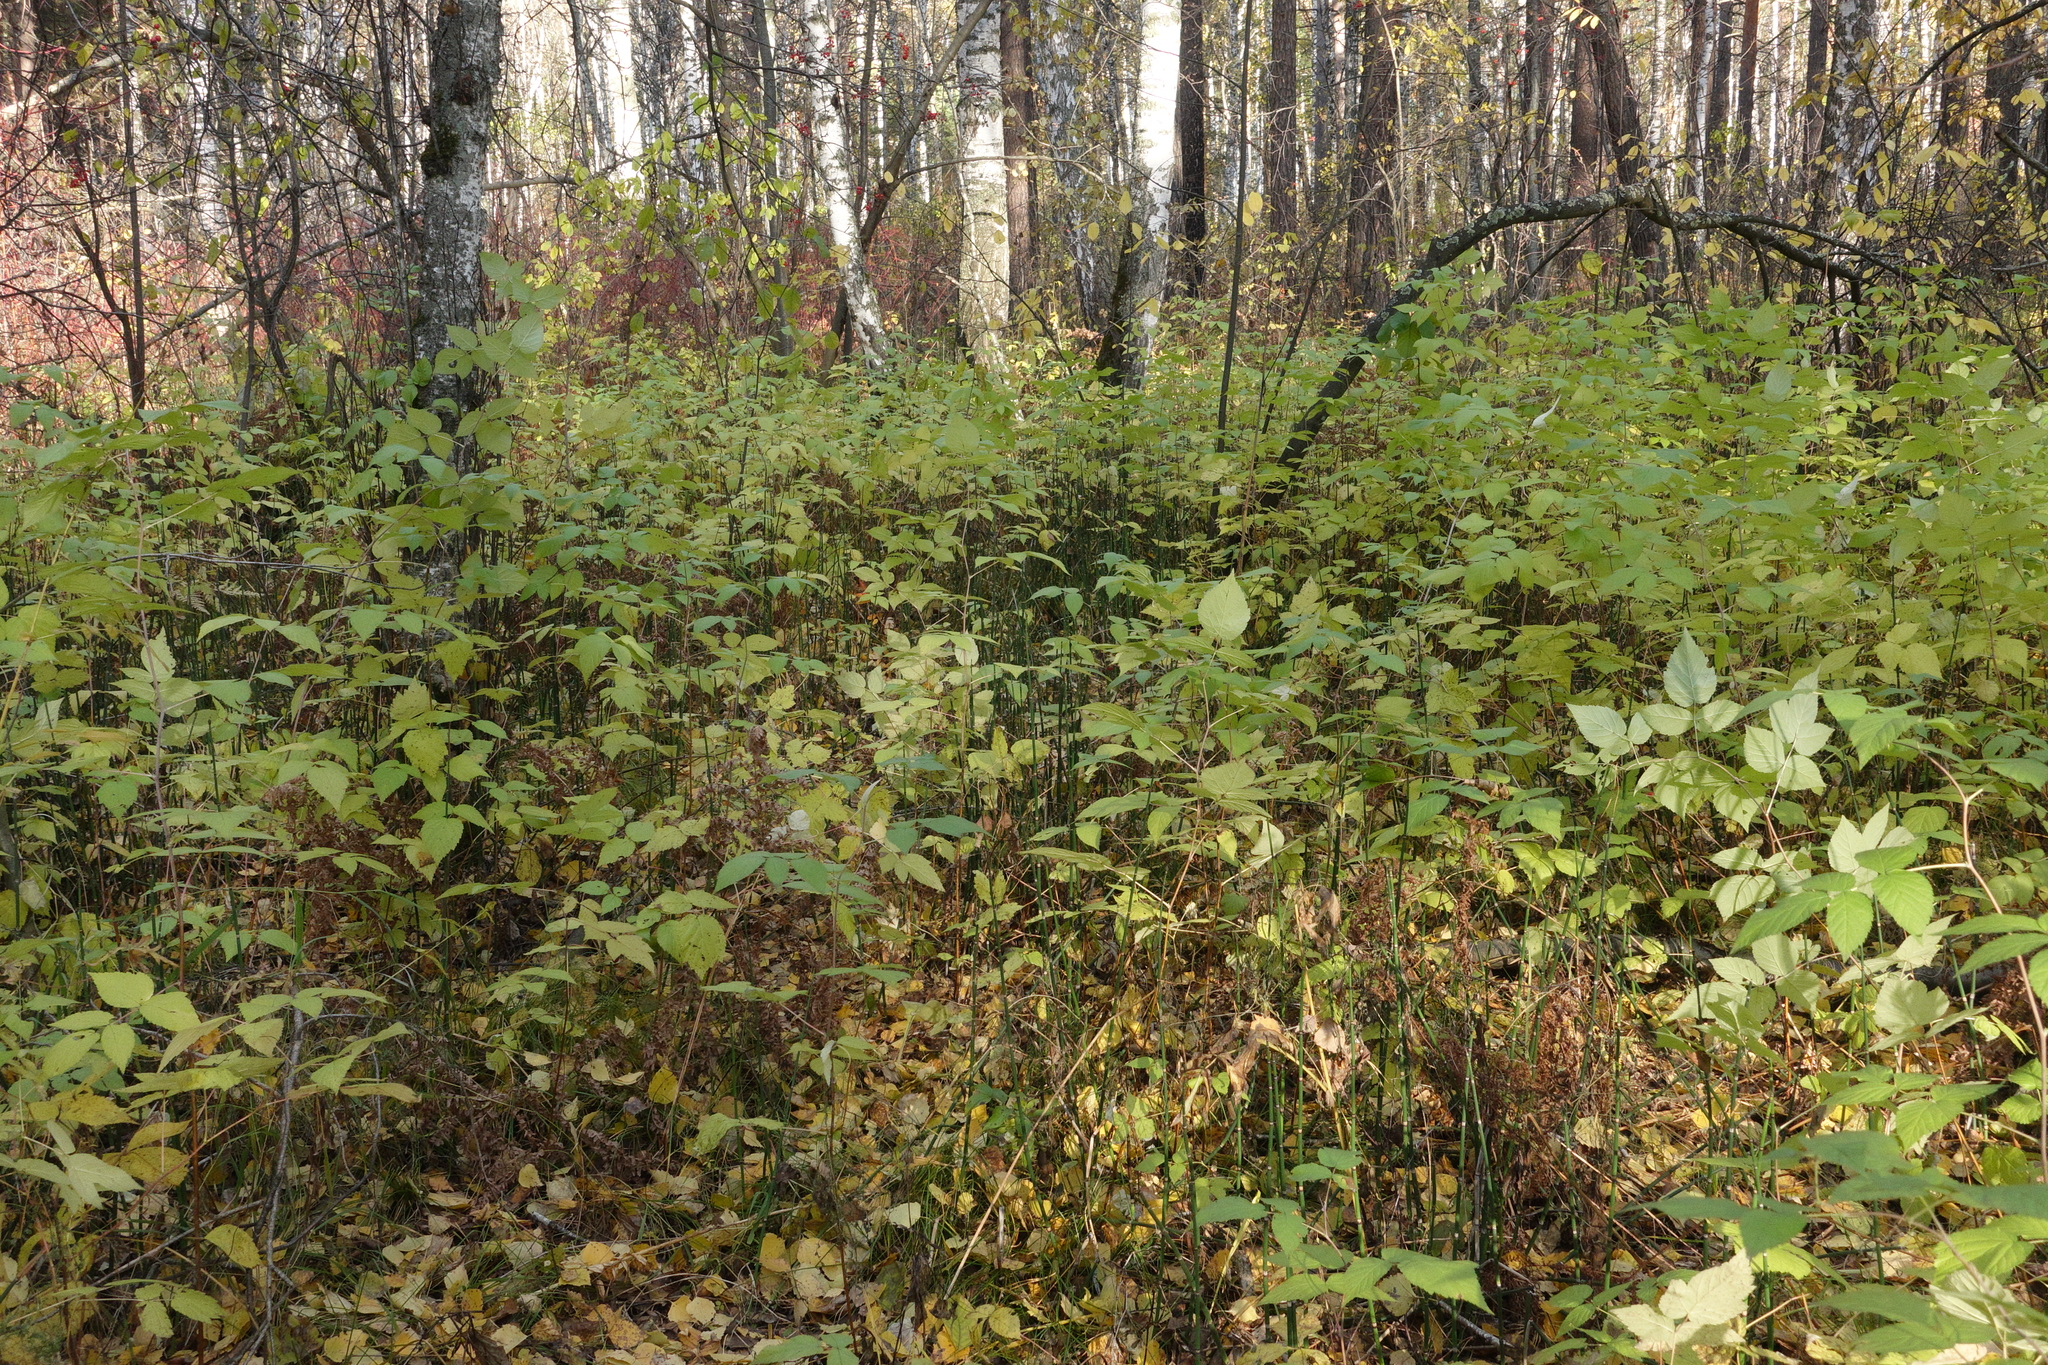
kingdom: Plantae
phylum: Tracheophyta
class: Magnoliopsida
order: Rosales
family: Rosaceae
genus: Rubus
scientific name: Rubus idaeus
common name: Raspberry
